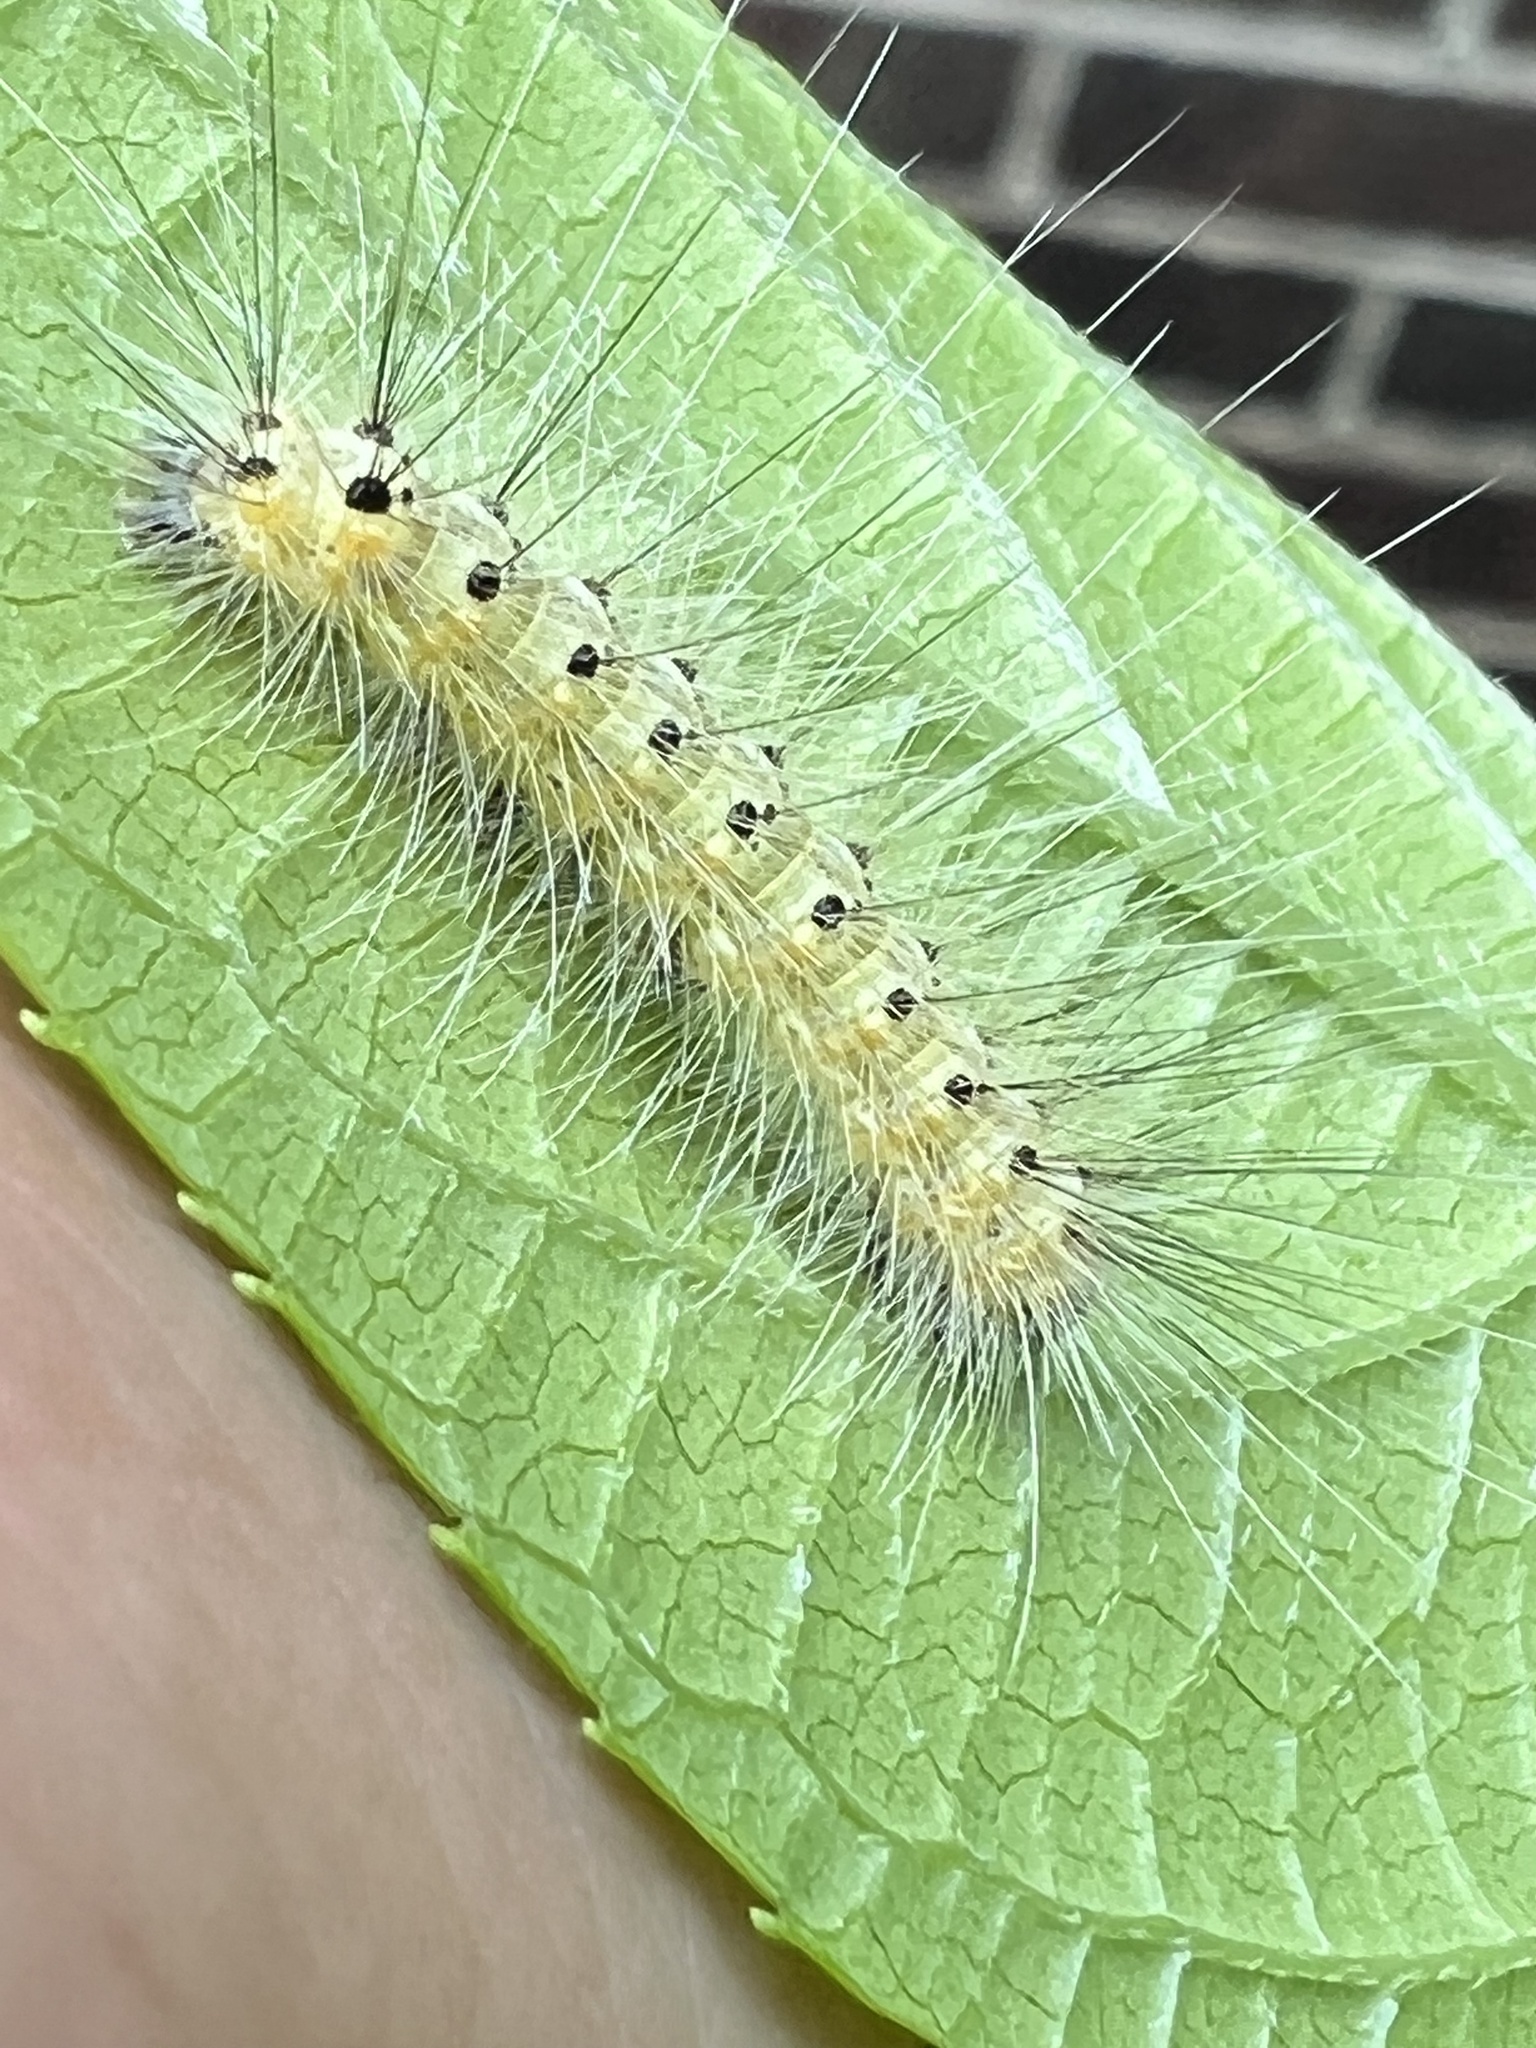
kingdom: Animalia
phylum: Arthropoda
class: Insecta
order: Lepidoptera
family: Erebidae
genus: Hyphantria
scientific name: Hyphantria cunea
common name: American white moth
